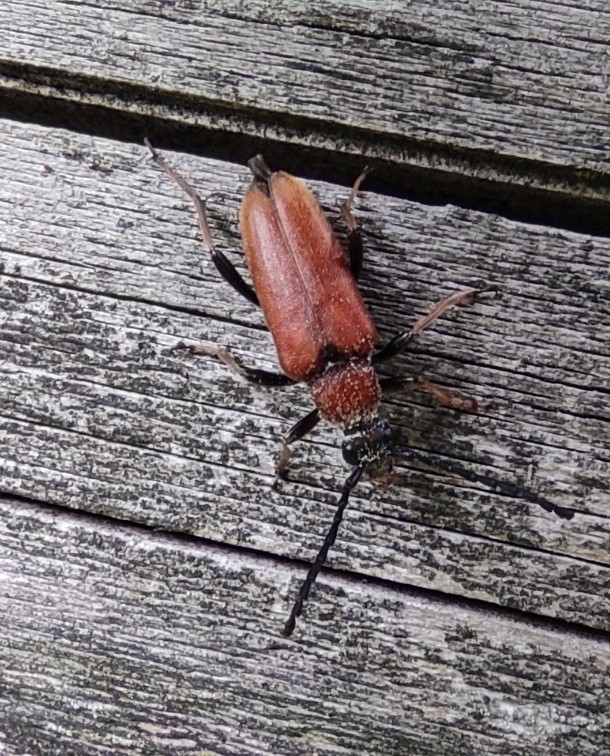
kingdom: Animalia
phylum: Arthropoda
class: Insecta
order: Coleoptera
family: Cerambycidae
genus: Stictoleptura
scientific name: Stictoleptura rubra
